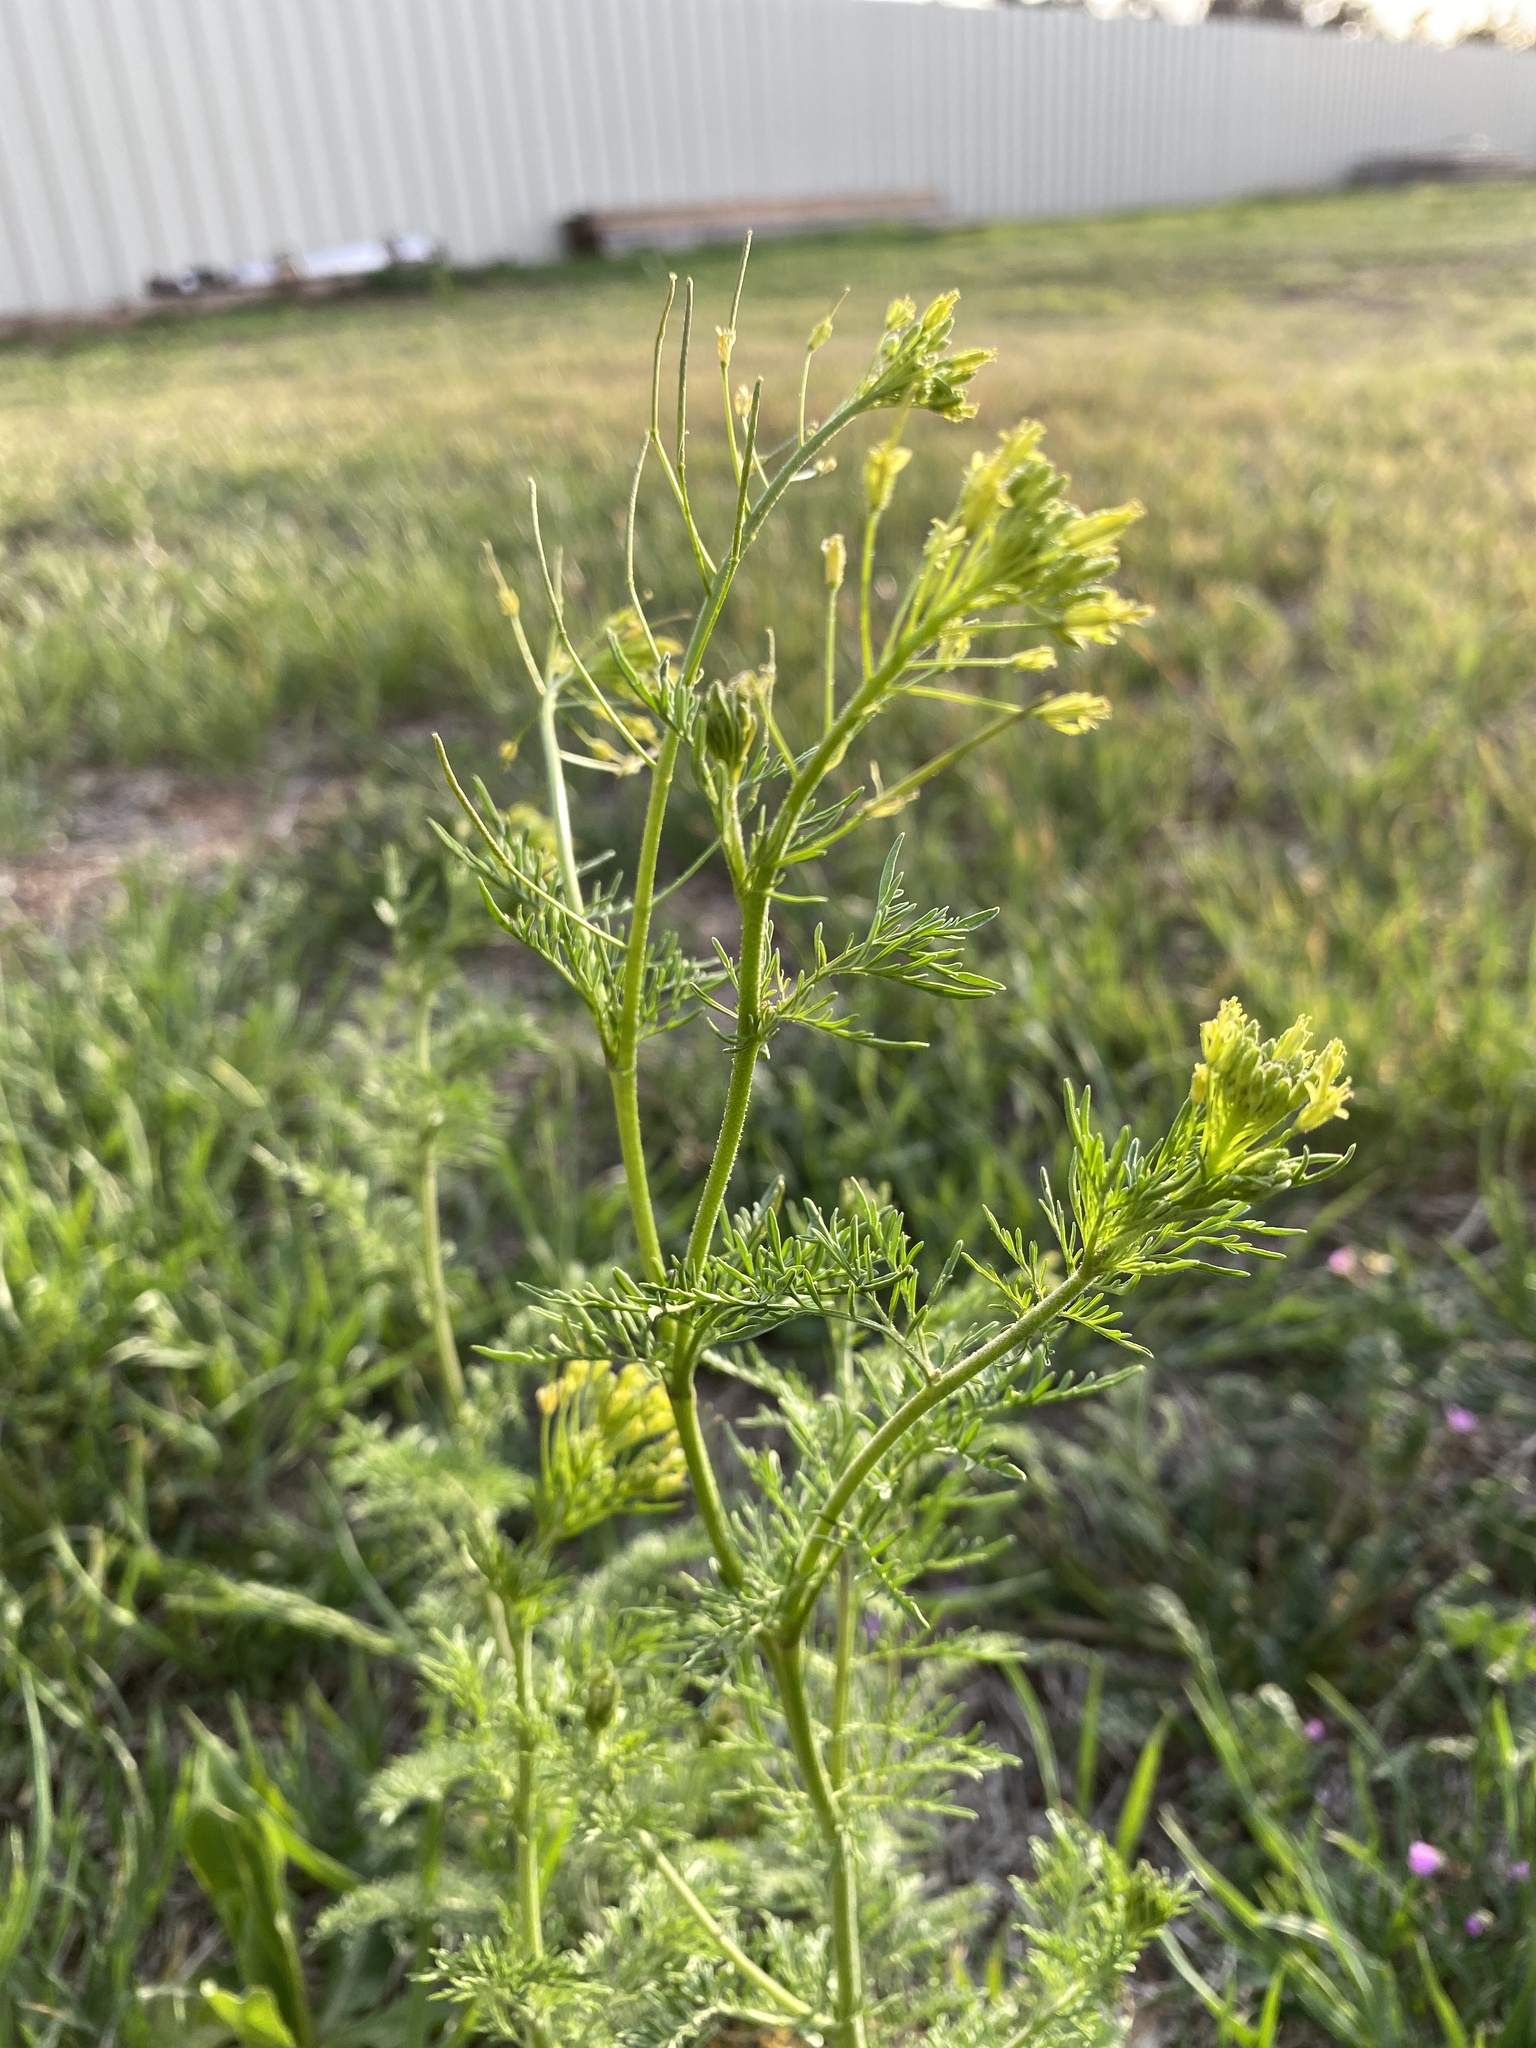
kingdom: Plantae
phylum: Tracheophyta
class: Magnoliopsida
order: Brassicales
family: Brassicaceae
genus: Descurainia
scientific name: Descurainia sophia
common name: Flixweed
